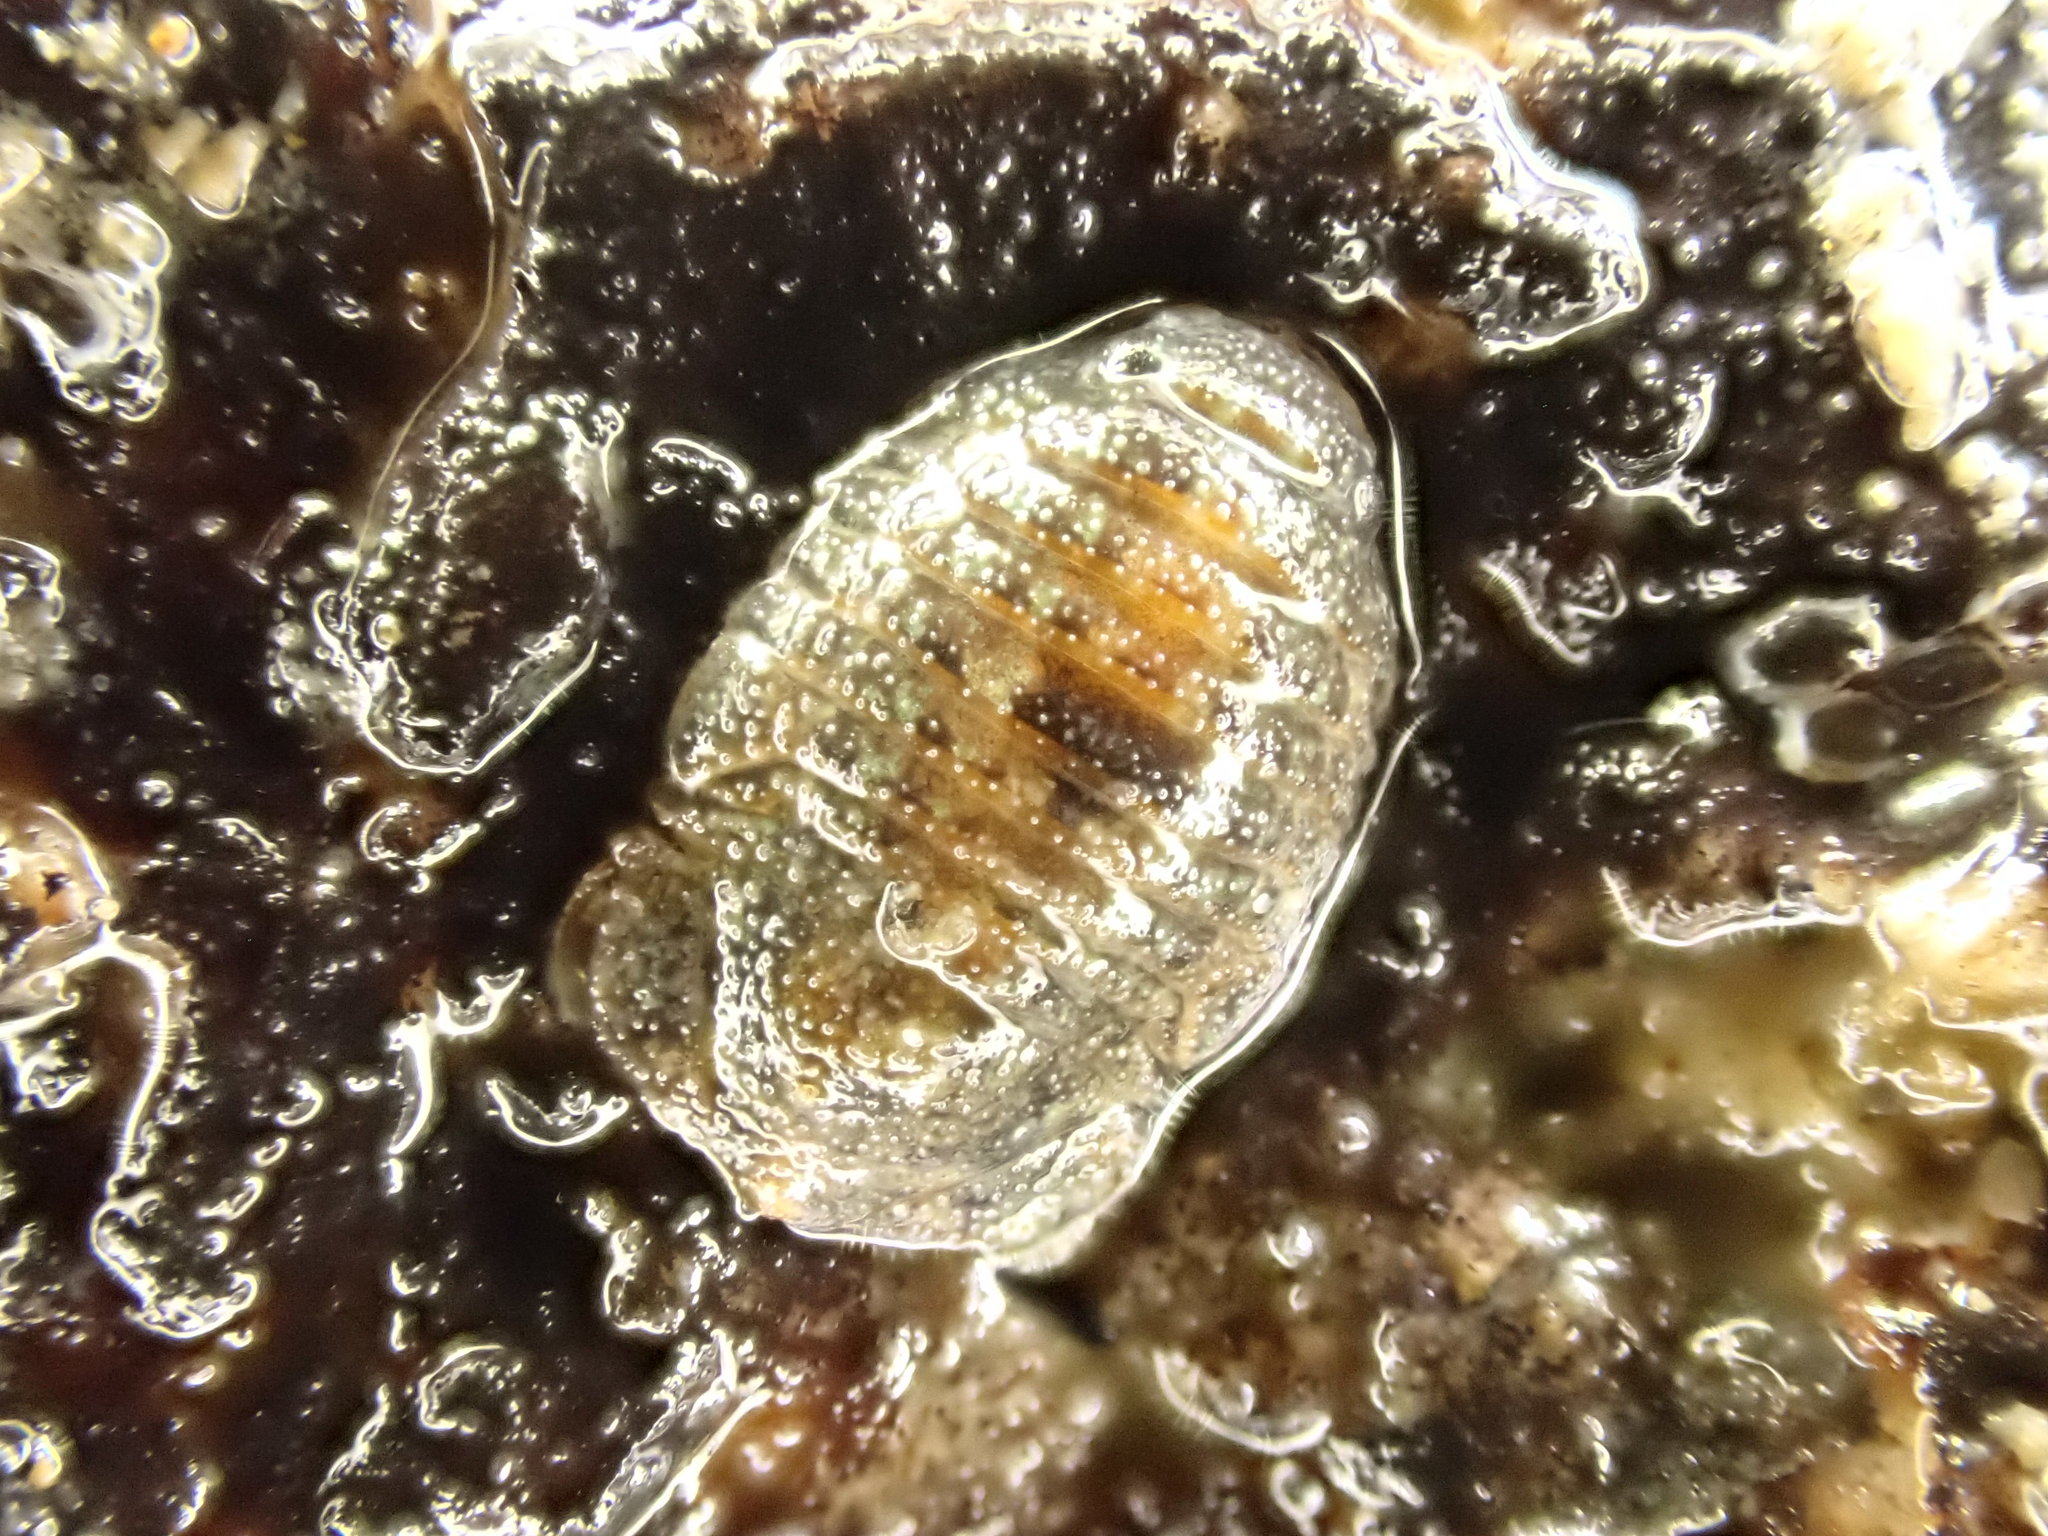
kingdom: Animalia
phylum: Arthropoda
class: Malacostraca
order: Isopoda
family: Sphaeromatidae
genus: Exosphaeroma
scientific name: Exosphaeroma planulum
